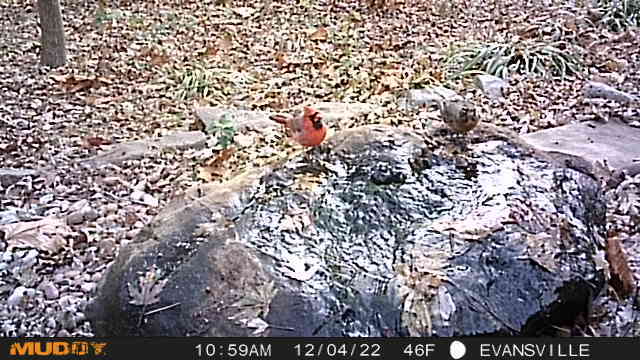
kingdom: Animalia
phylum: Chordata
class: Aves
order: Passeriformes
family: Cardinalidae
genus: Cardinalis
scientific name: Cardinalis cardinalis
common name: Northern cardinal
